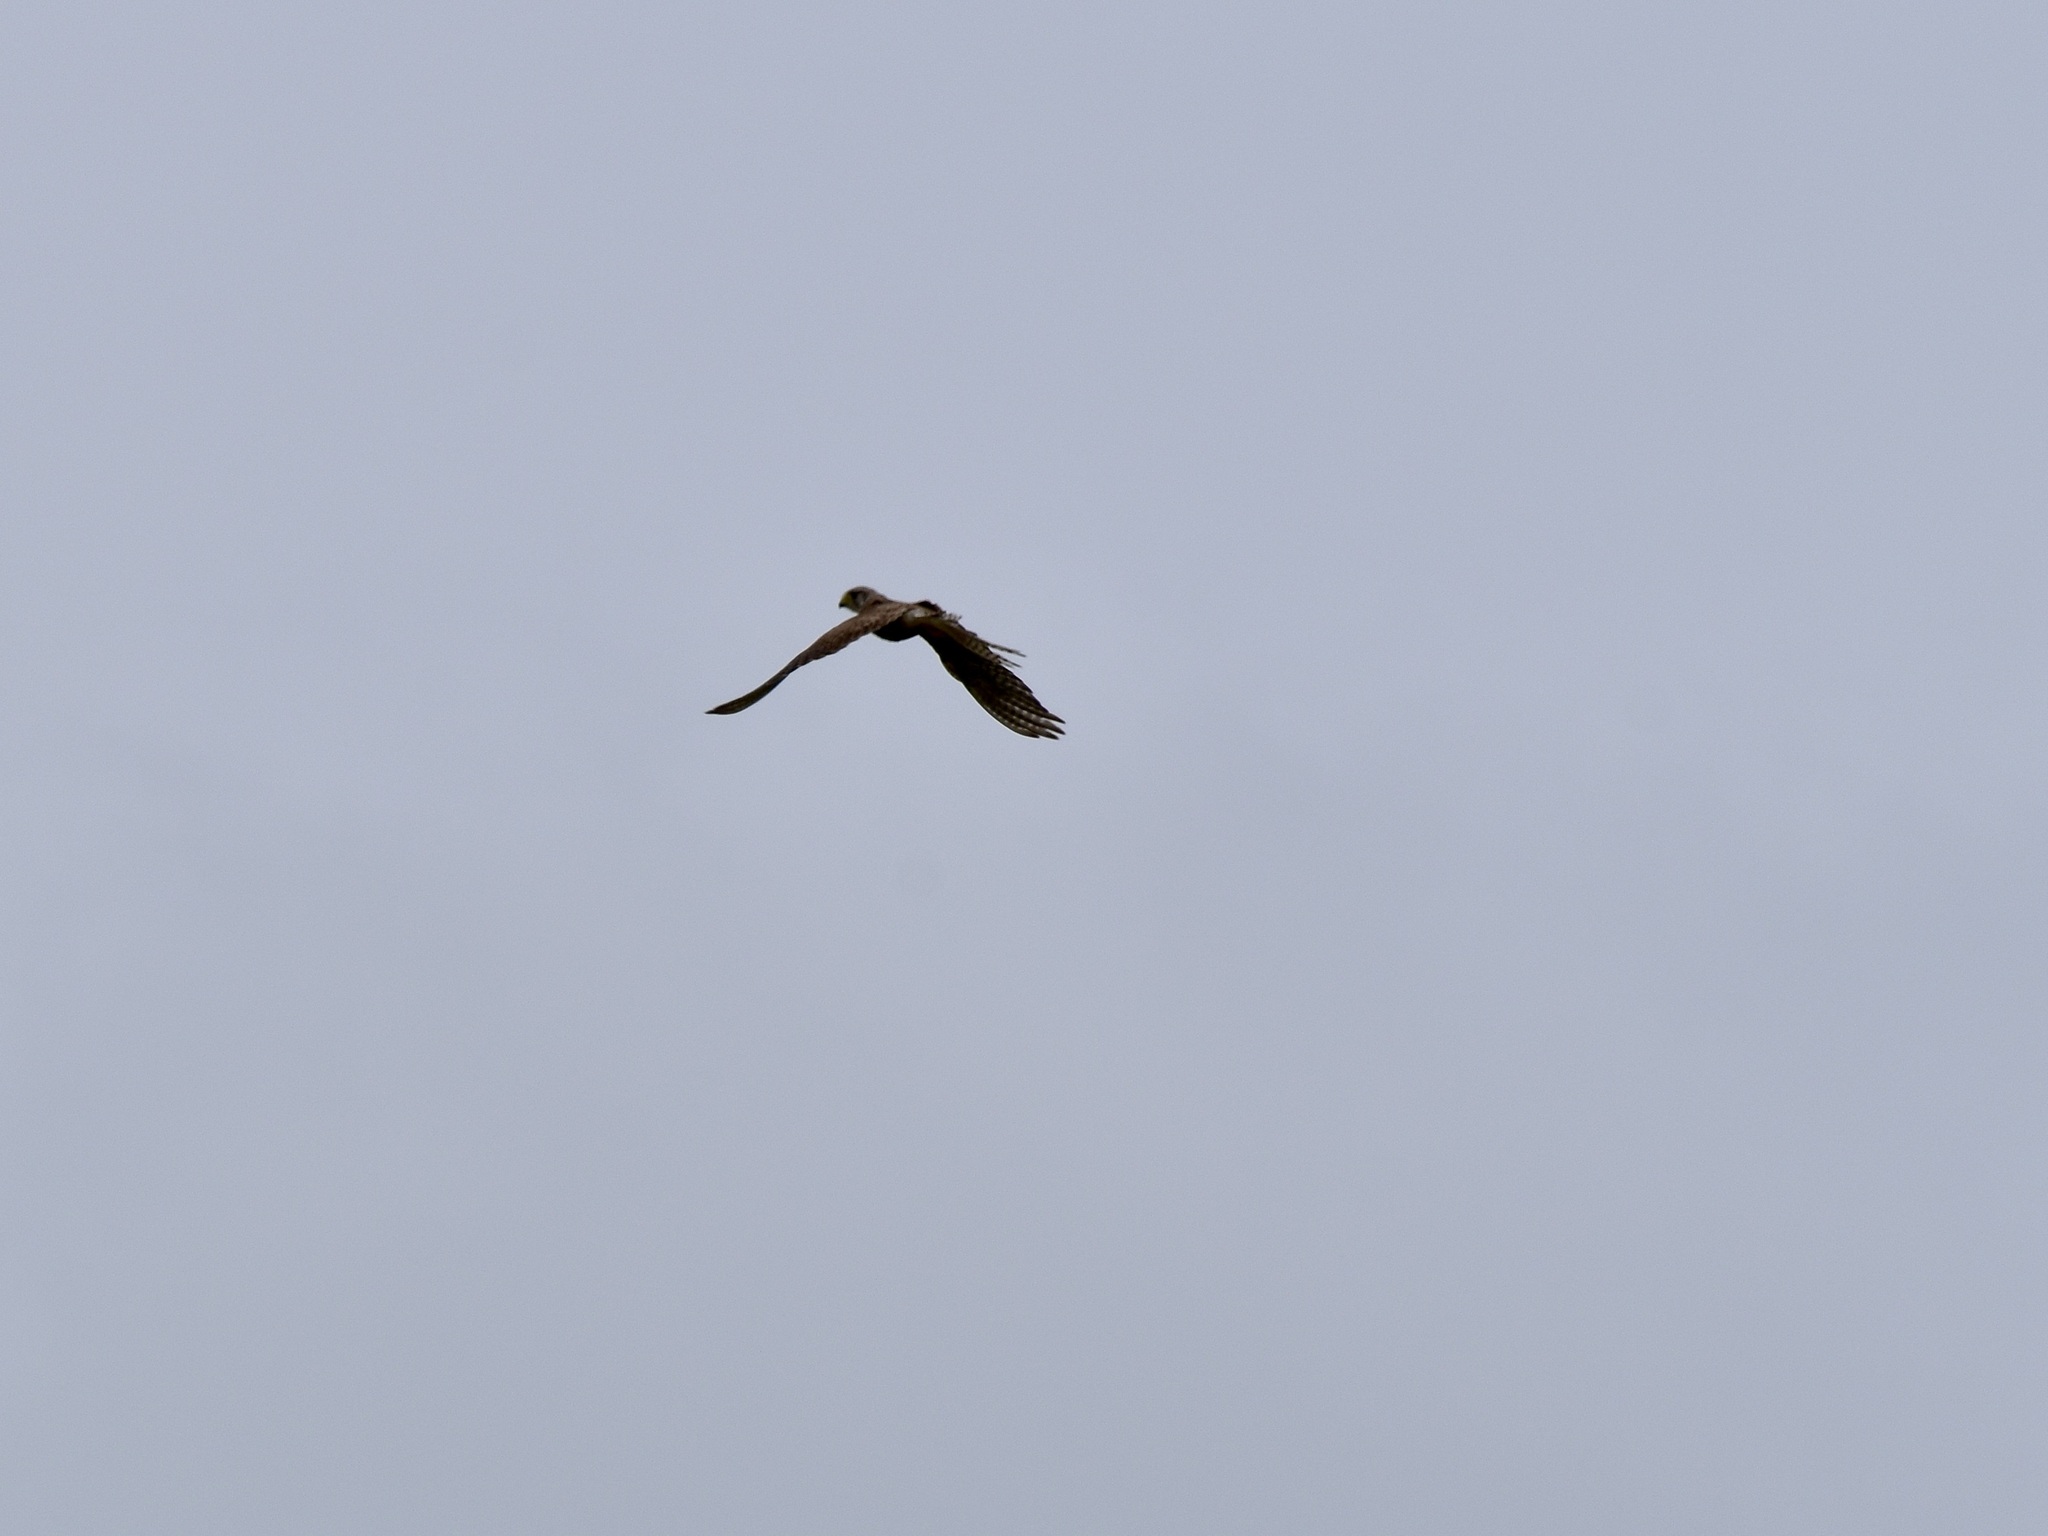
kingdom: Animalia
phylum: Chordata
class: Aves
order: Falconiformes
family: Falconidae
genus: Falco
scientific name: Falco tinnunculus
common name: Common kestrel
